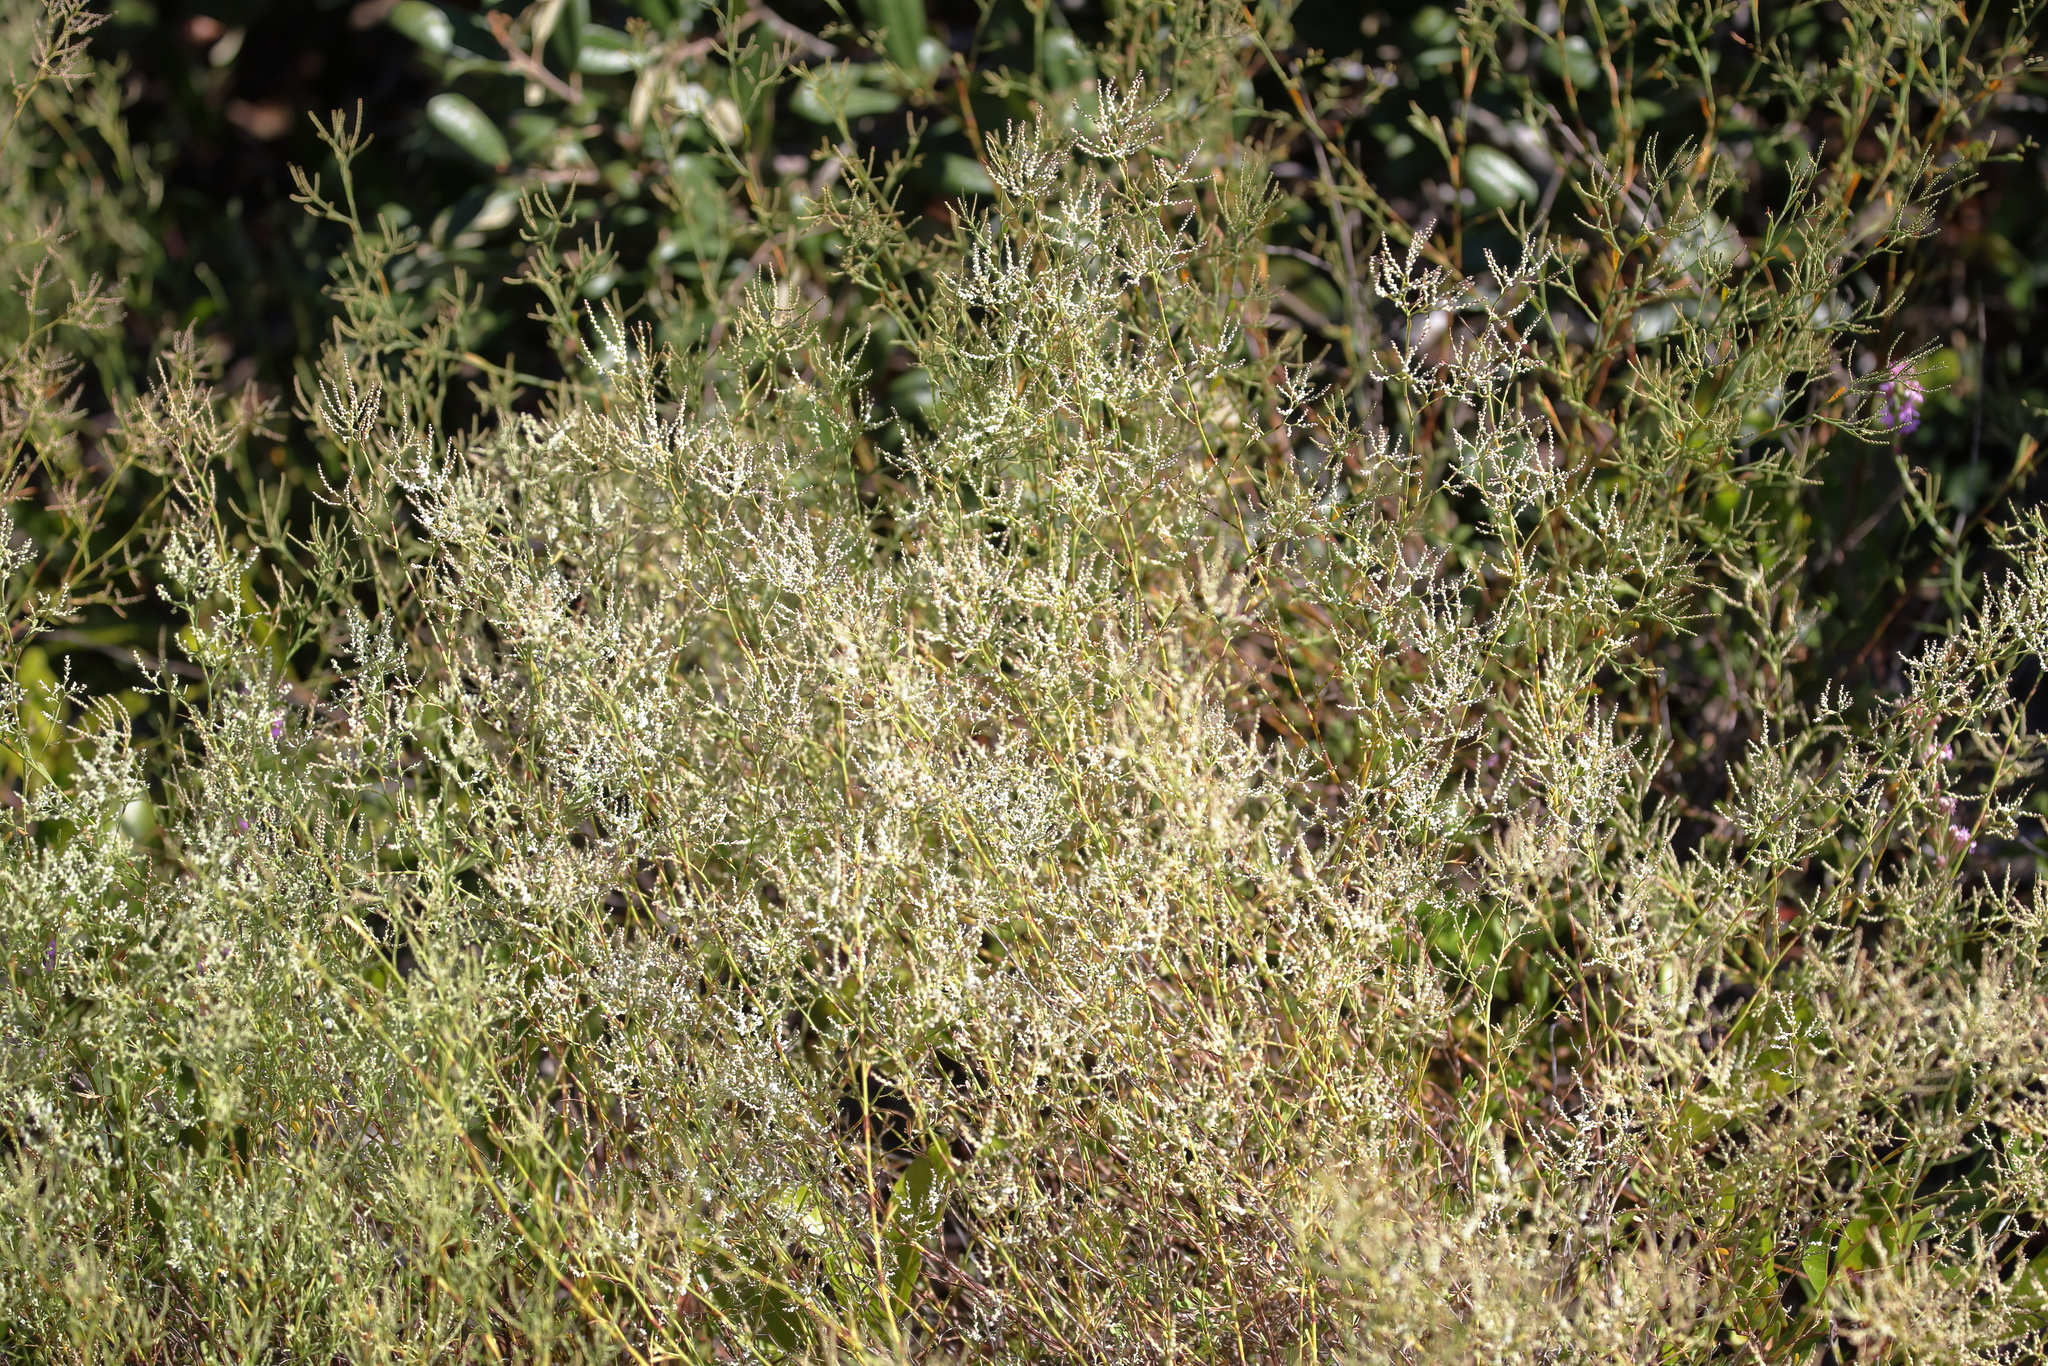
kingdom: Plantae
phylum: Tracheophyta
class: Magnoliopsida
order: Caryophyllales
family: Polygonaceae
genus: Polygonella
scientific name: Polygonella polygama
